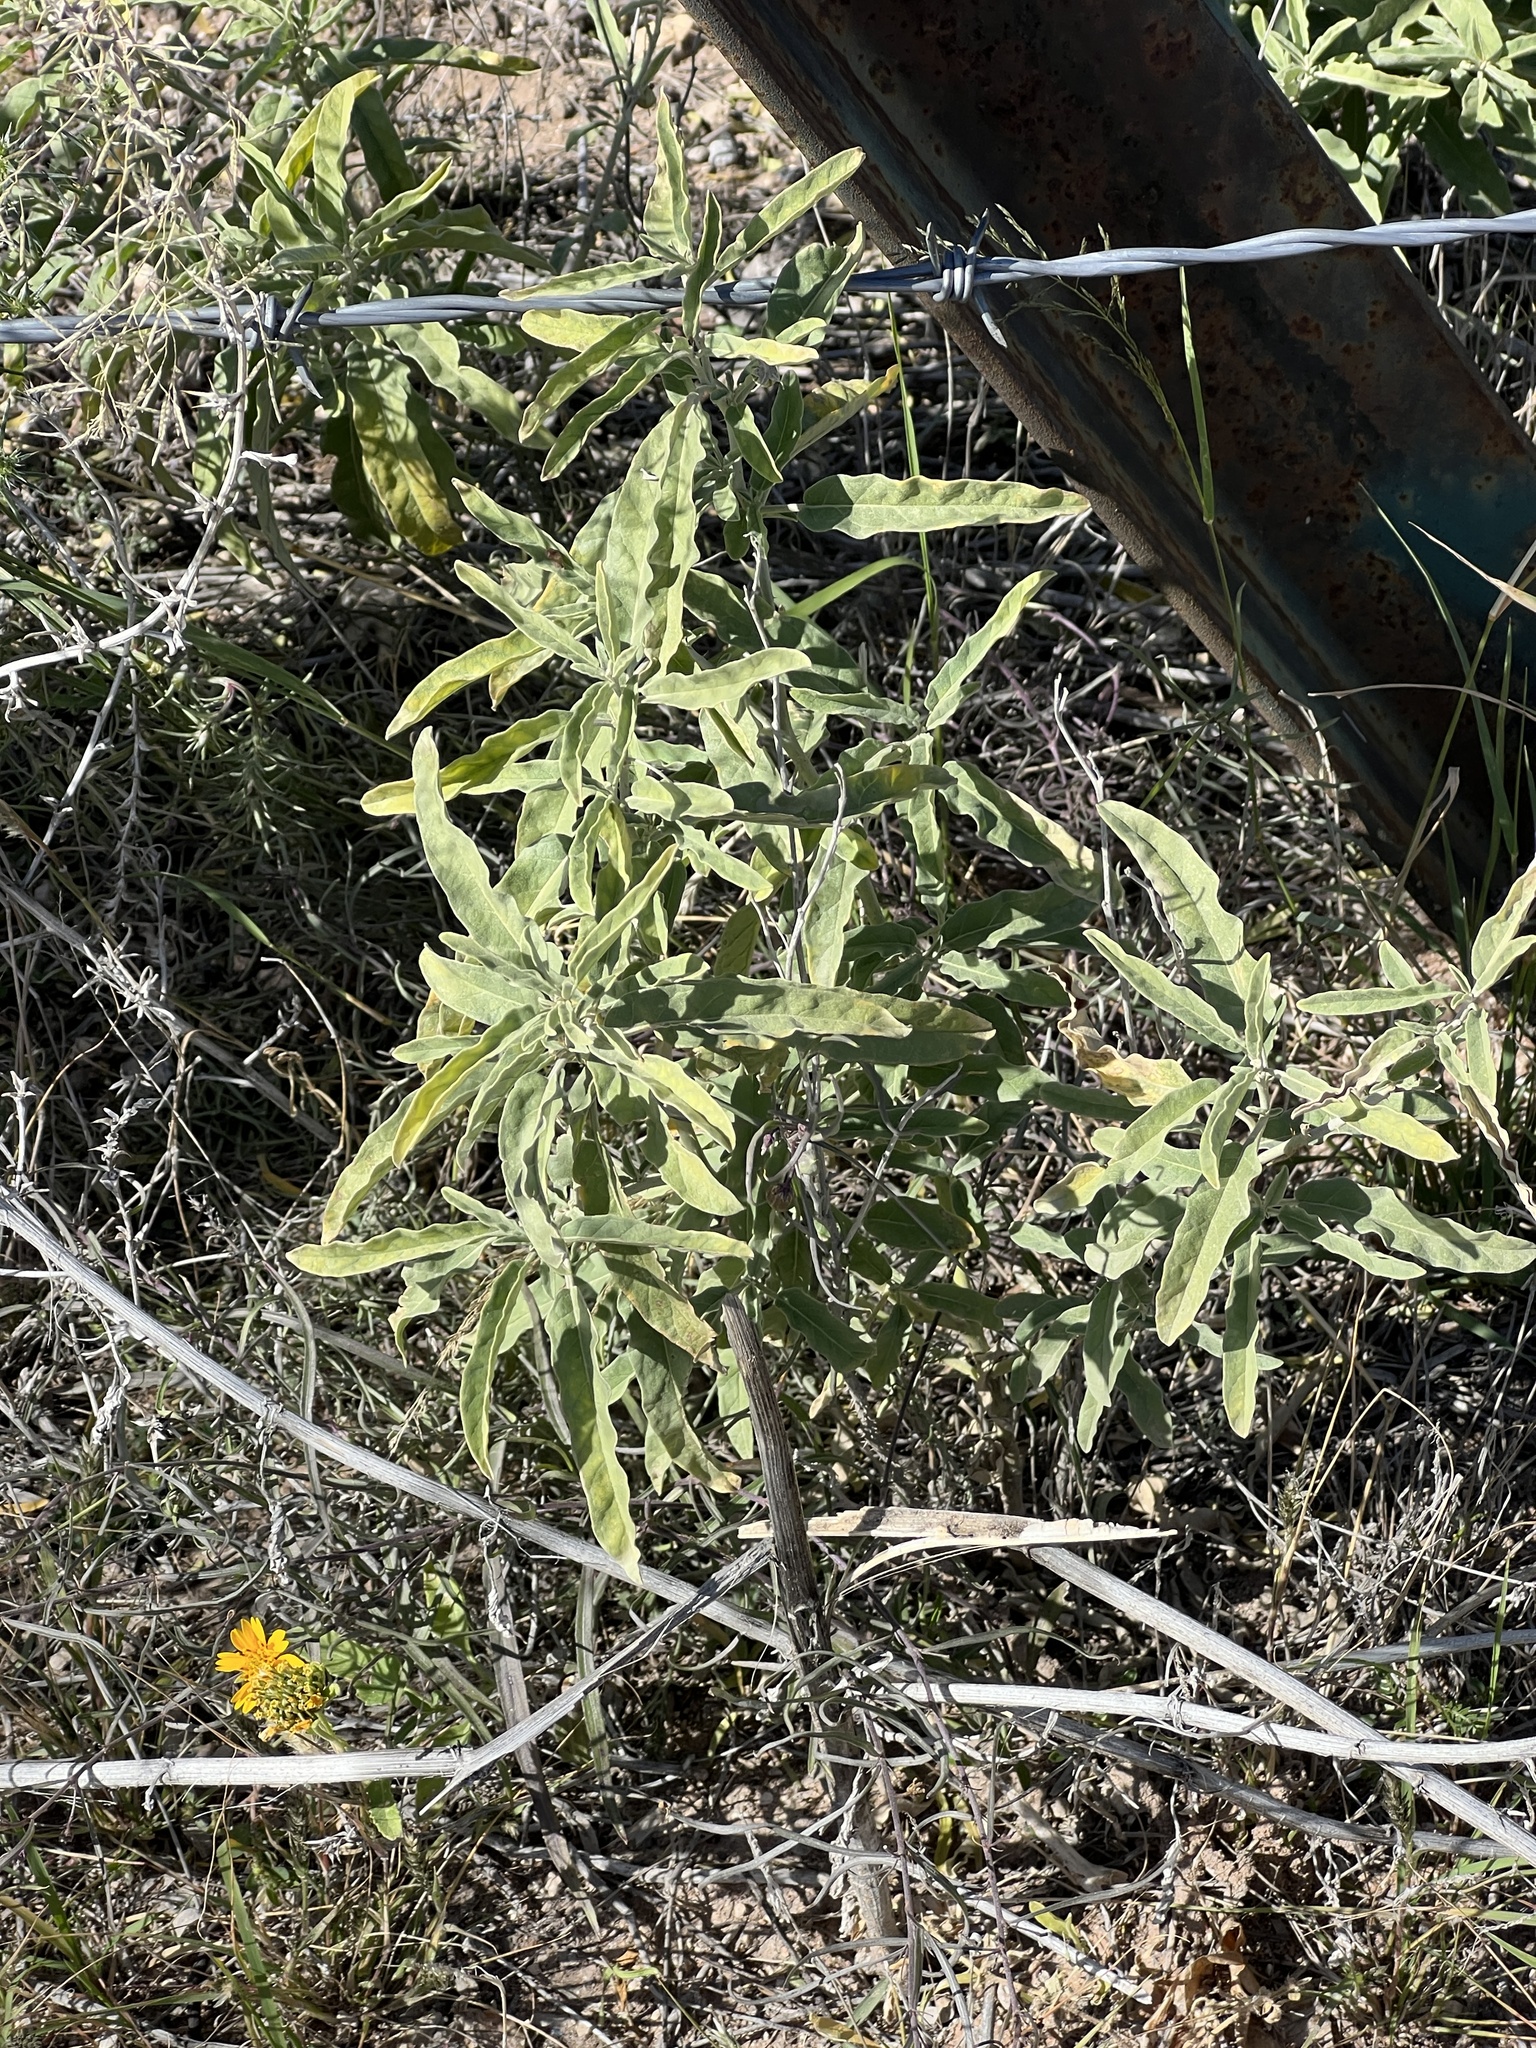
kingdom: Plantae
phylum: Tracheophyta
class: Magnoliopsida
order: Solanales
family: Solanaceae
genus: Solanum
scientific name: Solanum elaeagnifolium
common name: Silverleaf nightshade
